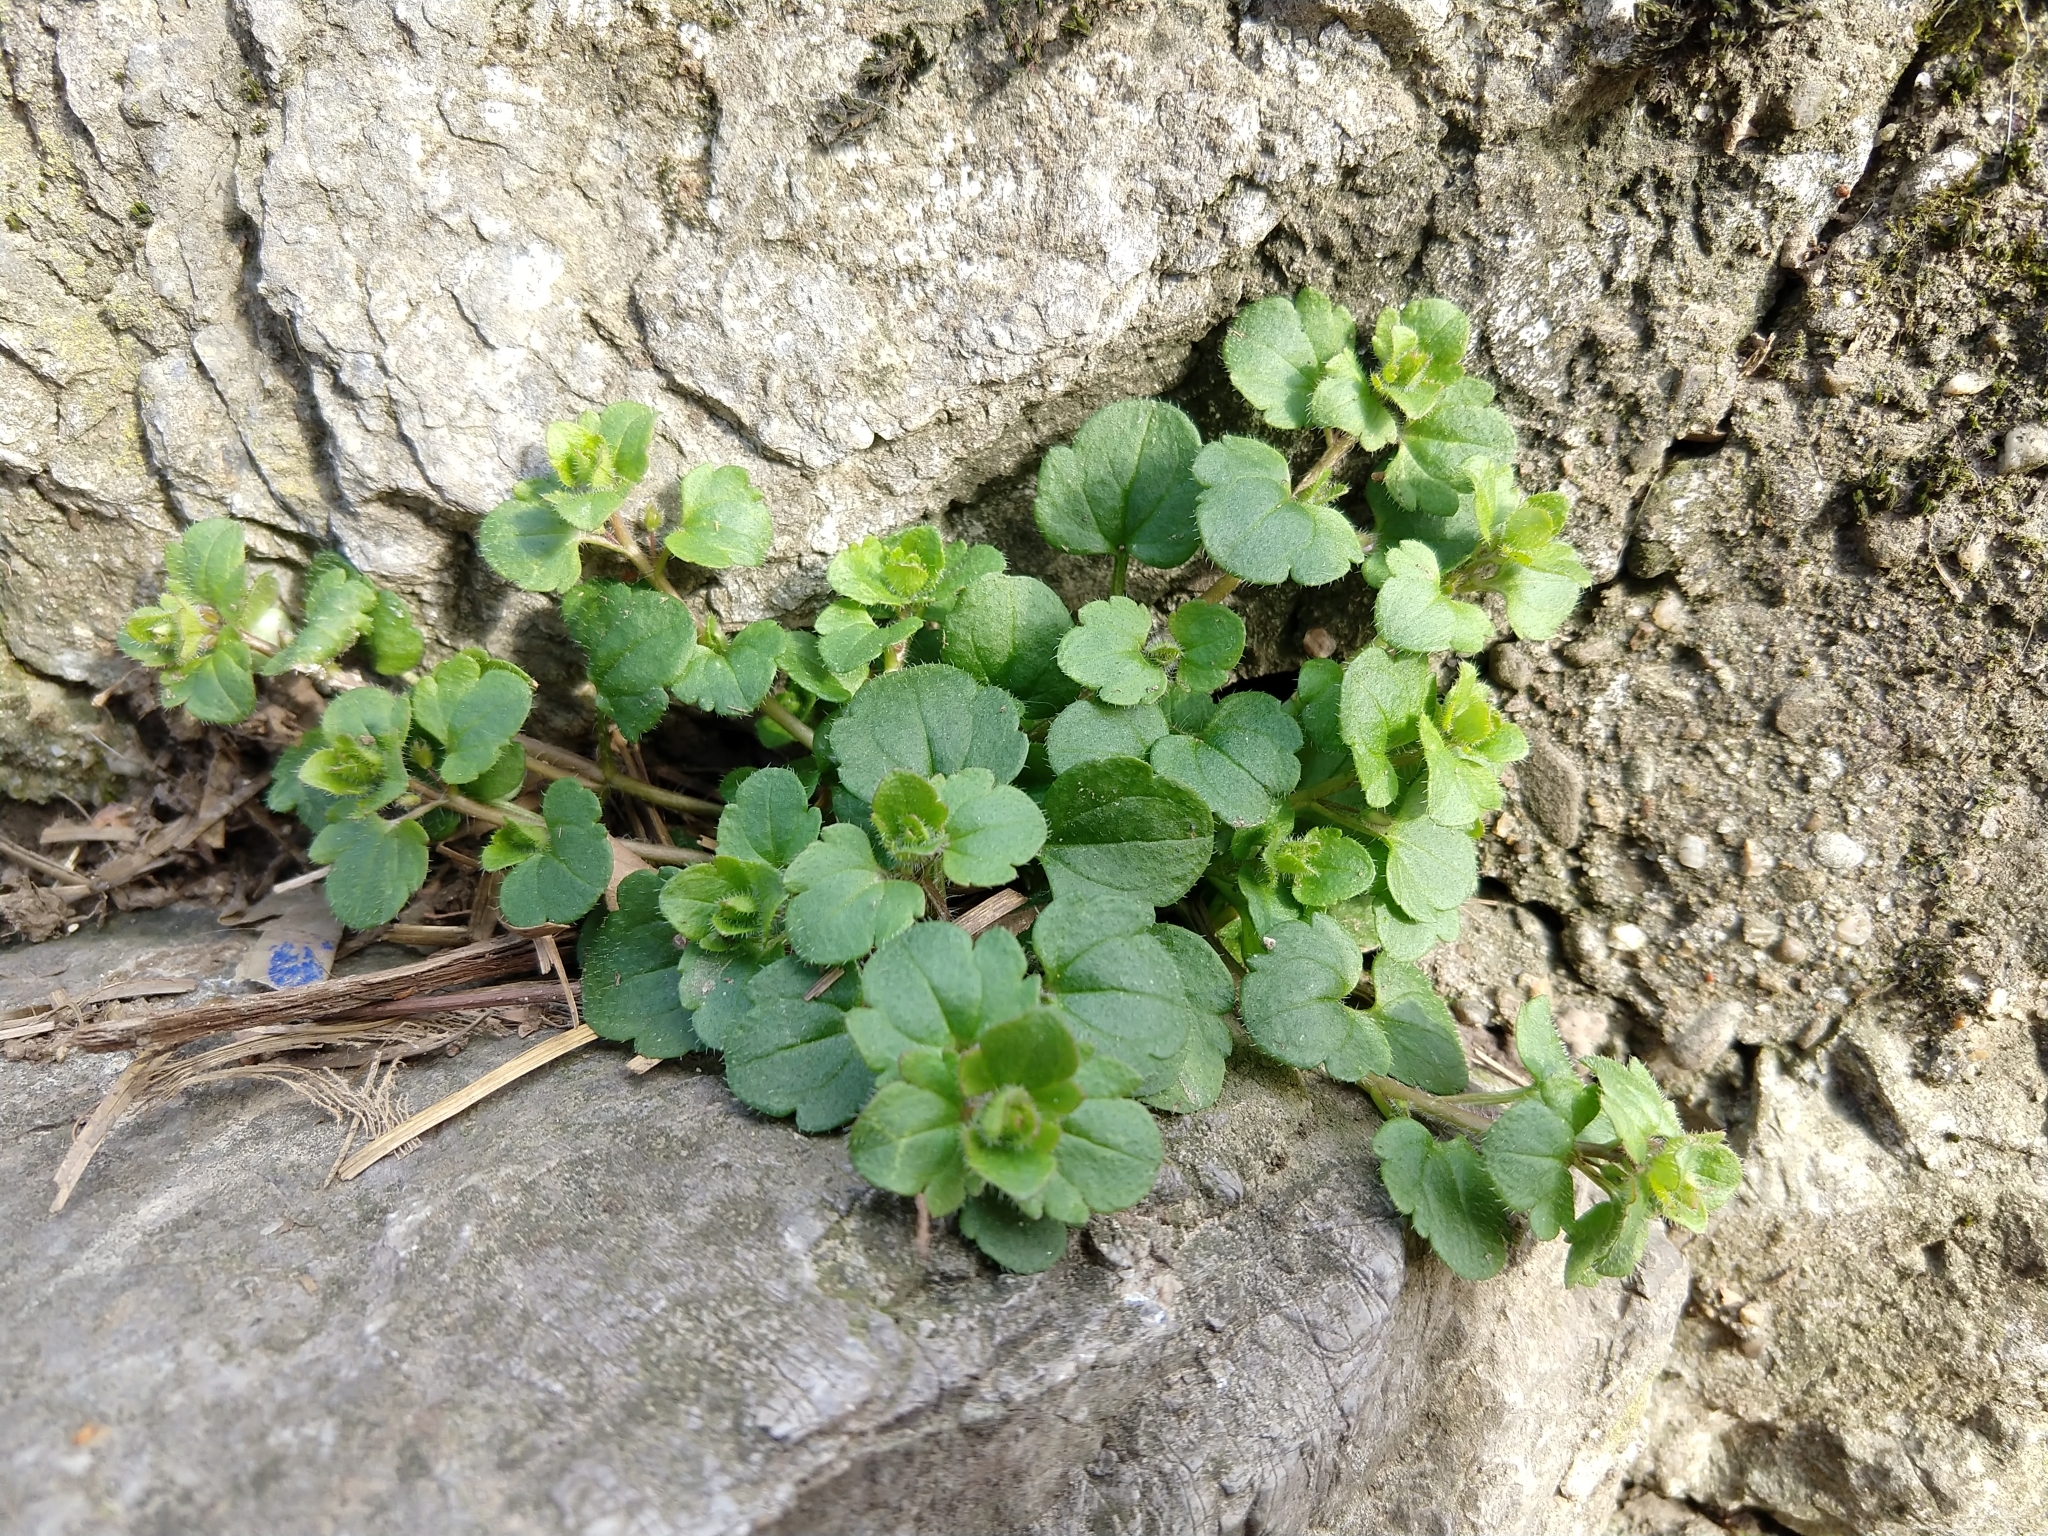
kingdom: Plantae
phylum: Tracheophyta
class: Magnoliopsida
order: Lamiales
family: Plantaginaceae
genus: Veronica
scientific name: Veronica hederifolia
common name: Ivy-leaved speedwell
